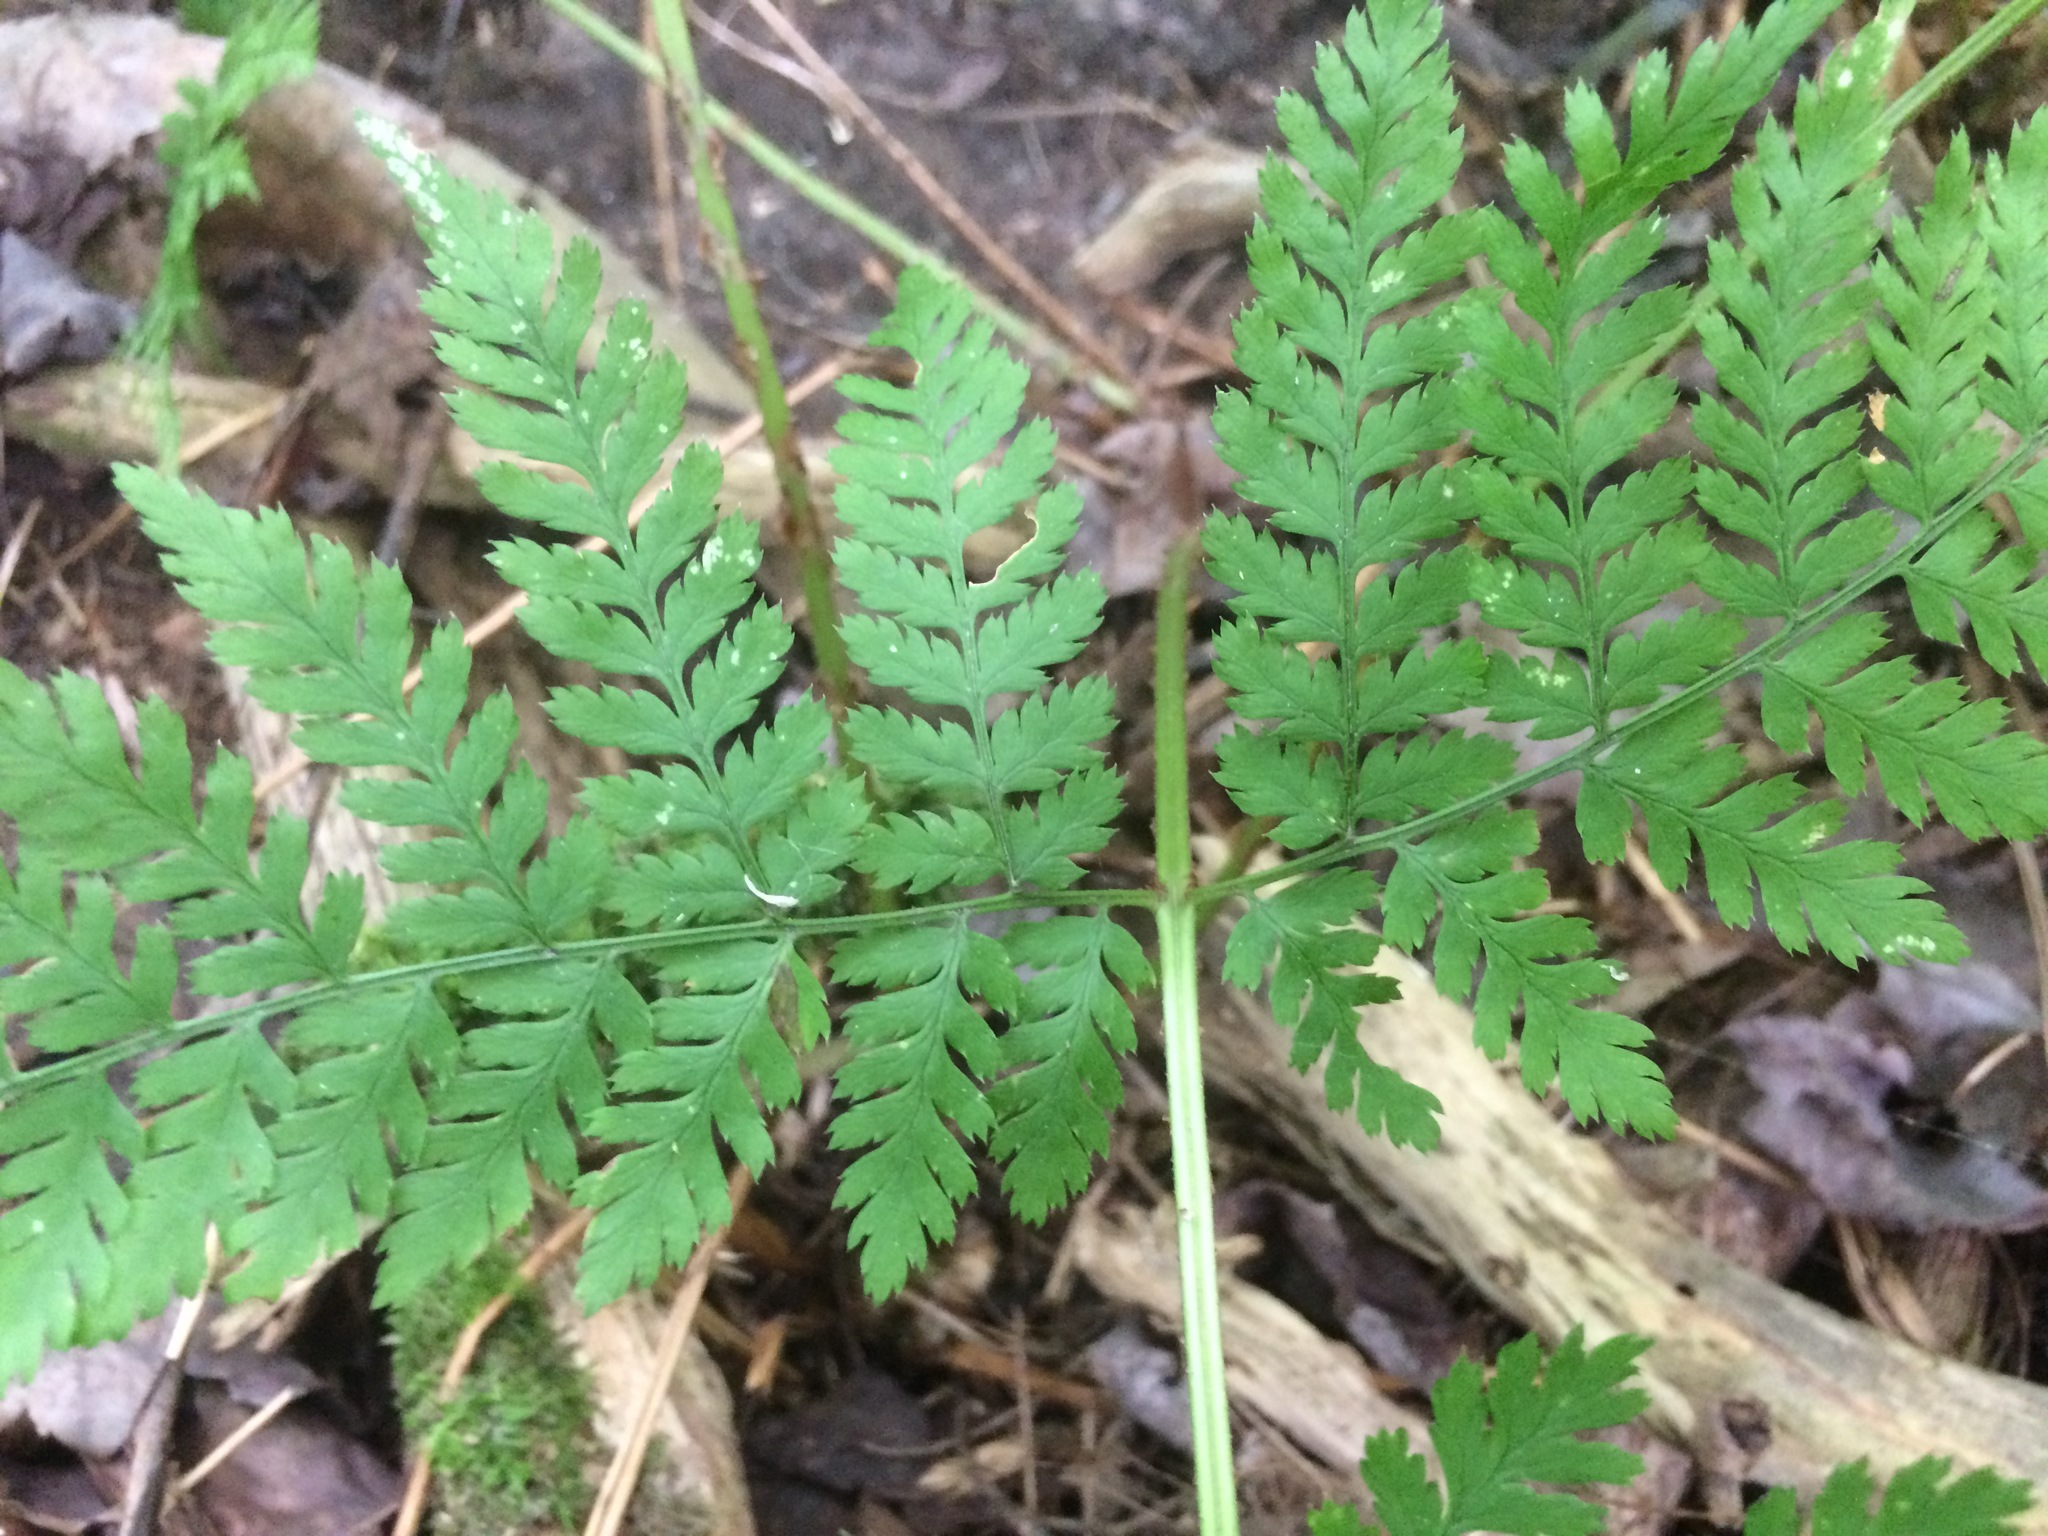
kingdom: Plantae
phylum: Tracheophyta
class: Polypodiopsida
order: Polypodiales
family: Dryopteridaceae
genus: Dryopteris
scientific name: Dryopteris campyloptera
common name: Mountain wood fern
